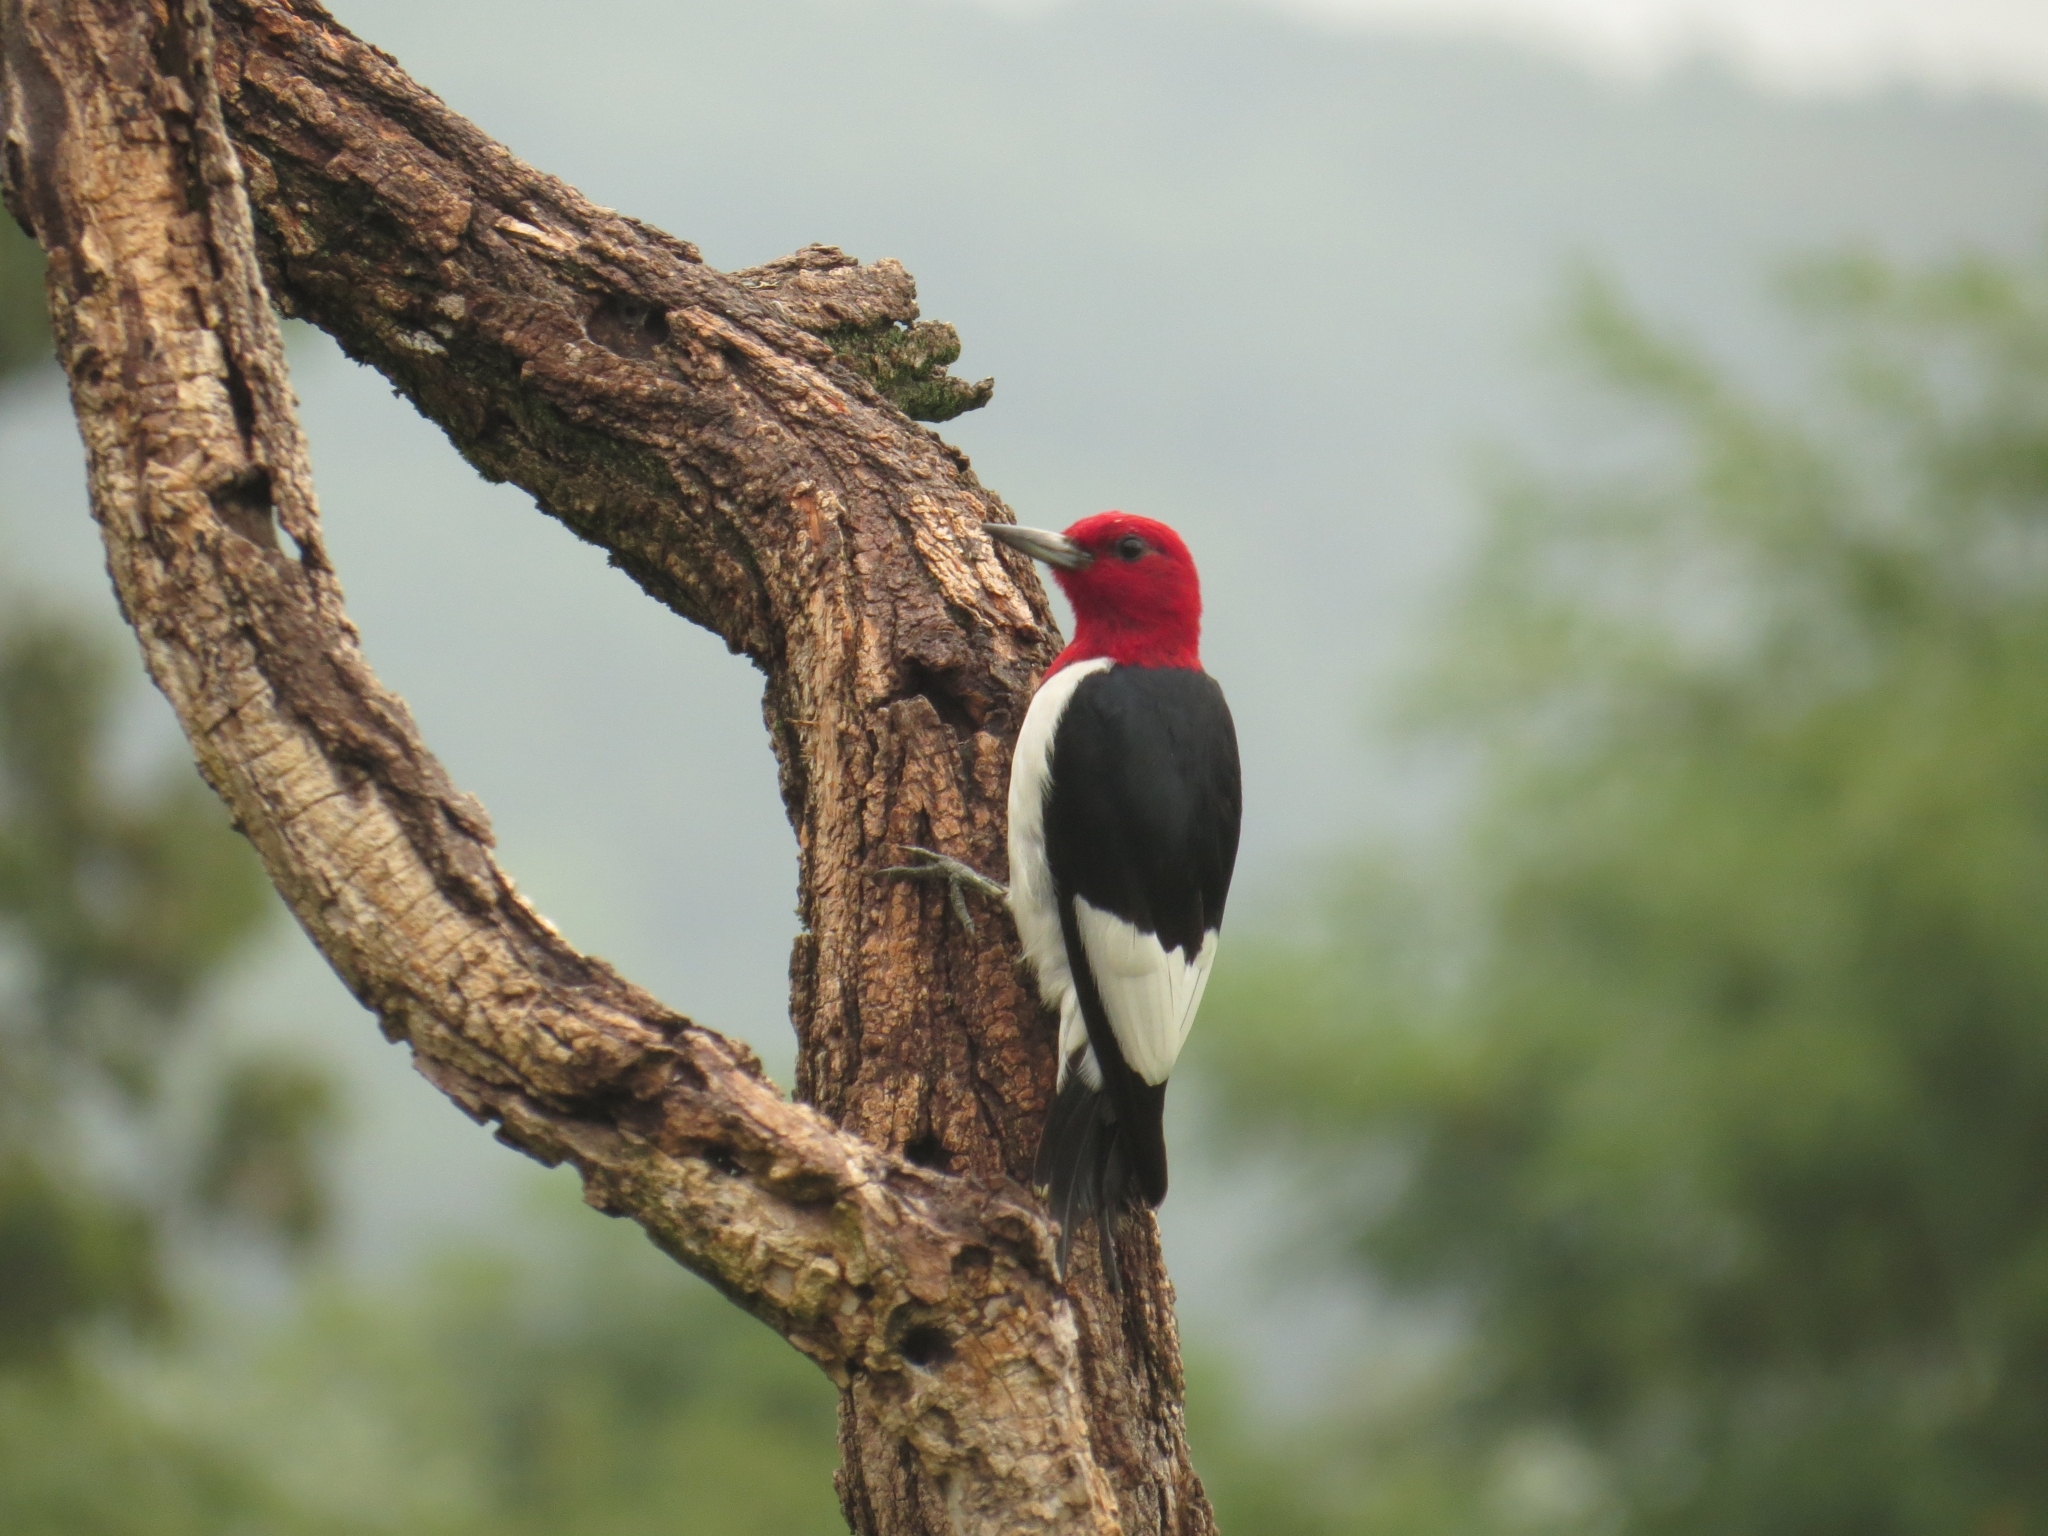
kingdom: Animalia
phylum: Chordata
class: Aves
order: Piciformes
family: Picidae
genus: Melanerpes
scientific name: Melanerpes erythrocephalus
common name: Red-headed woodpecker
